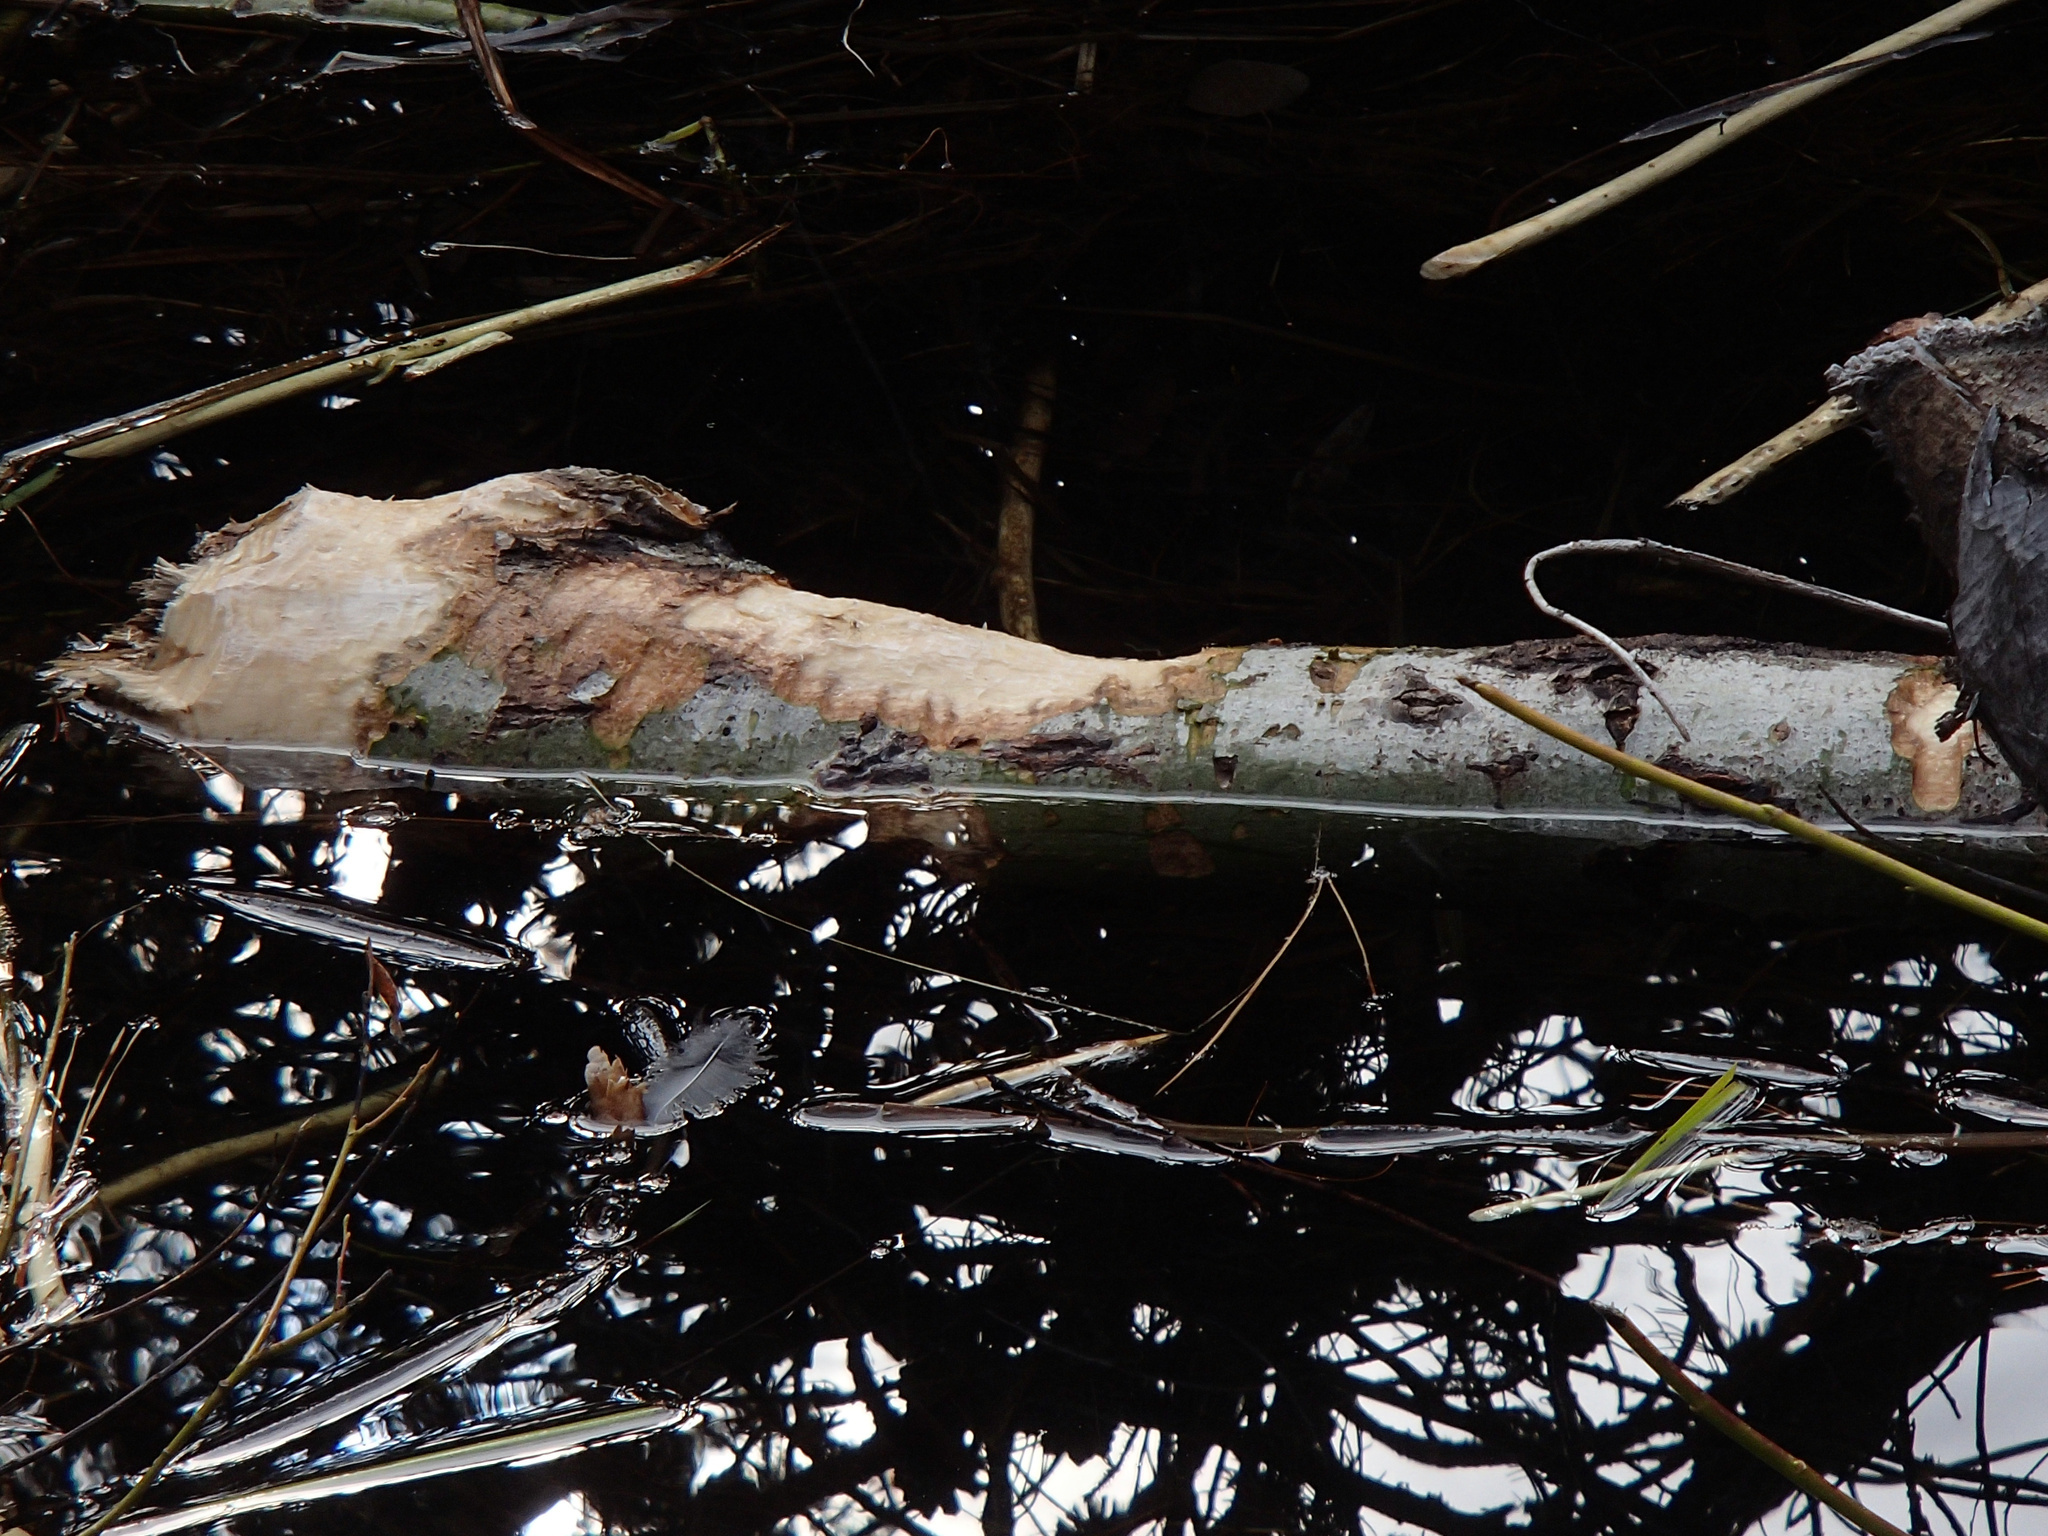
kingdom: Animalia
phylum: Chordata
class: Mammalia
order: Rodentia
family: Castoridae
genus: Castor
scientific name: Castor canadensis
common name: American beaver
